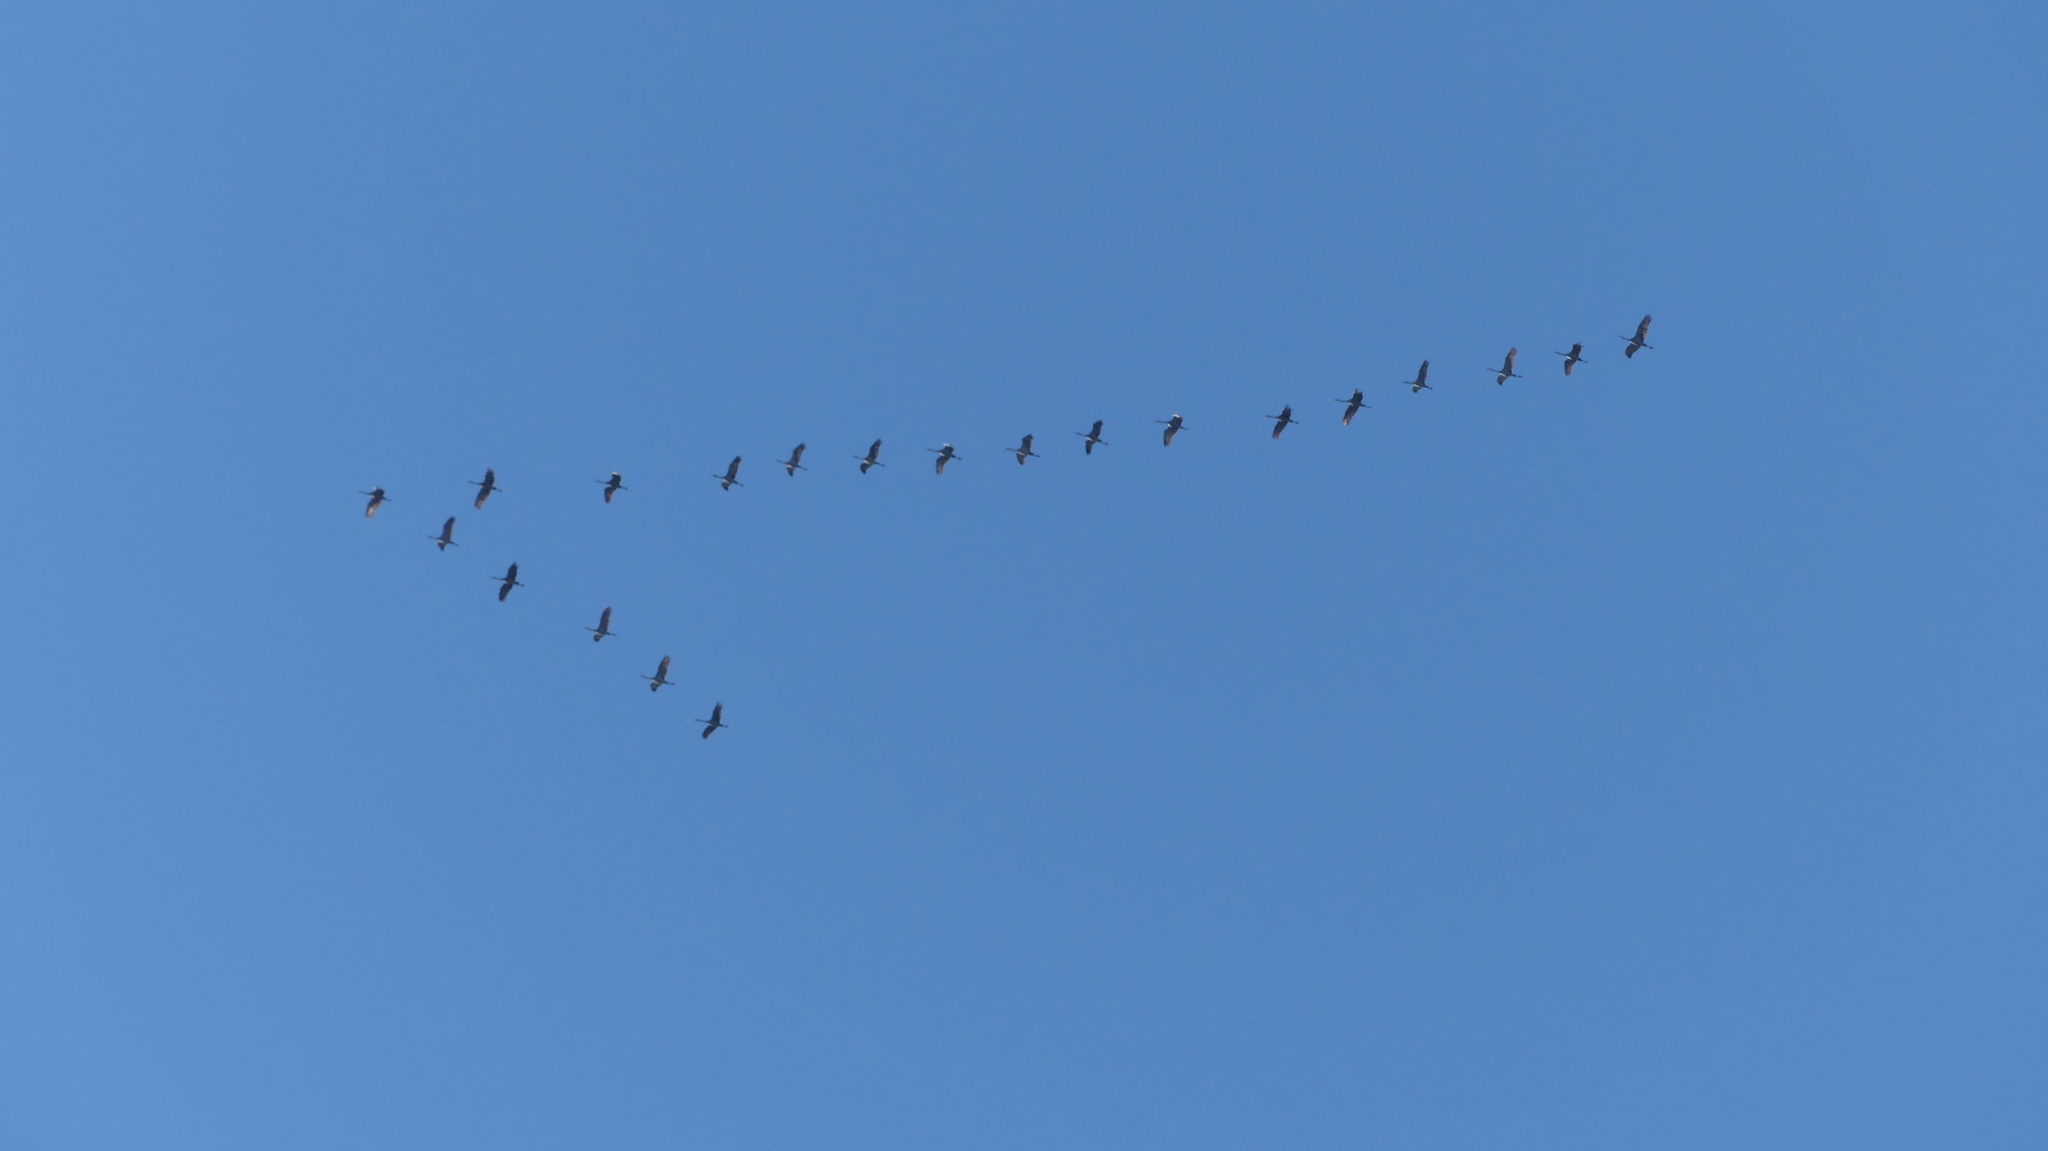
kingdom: Animalia
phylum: Chordata
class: Aves
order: Gruiformes
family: Gruidae
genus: Grus
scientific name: Grus canadensis
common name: Sandhill crane
